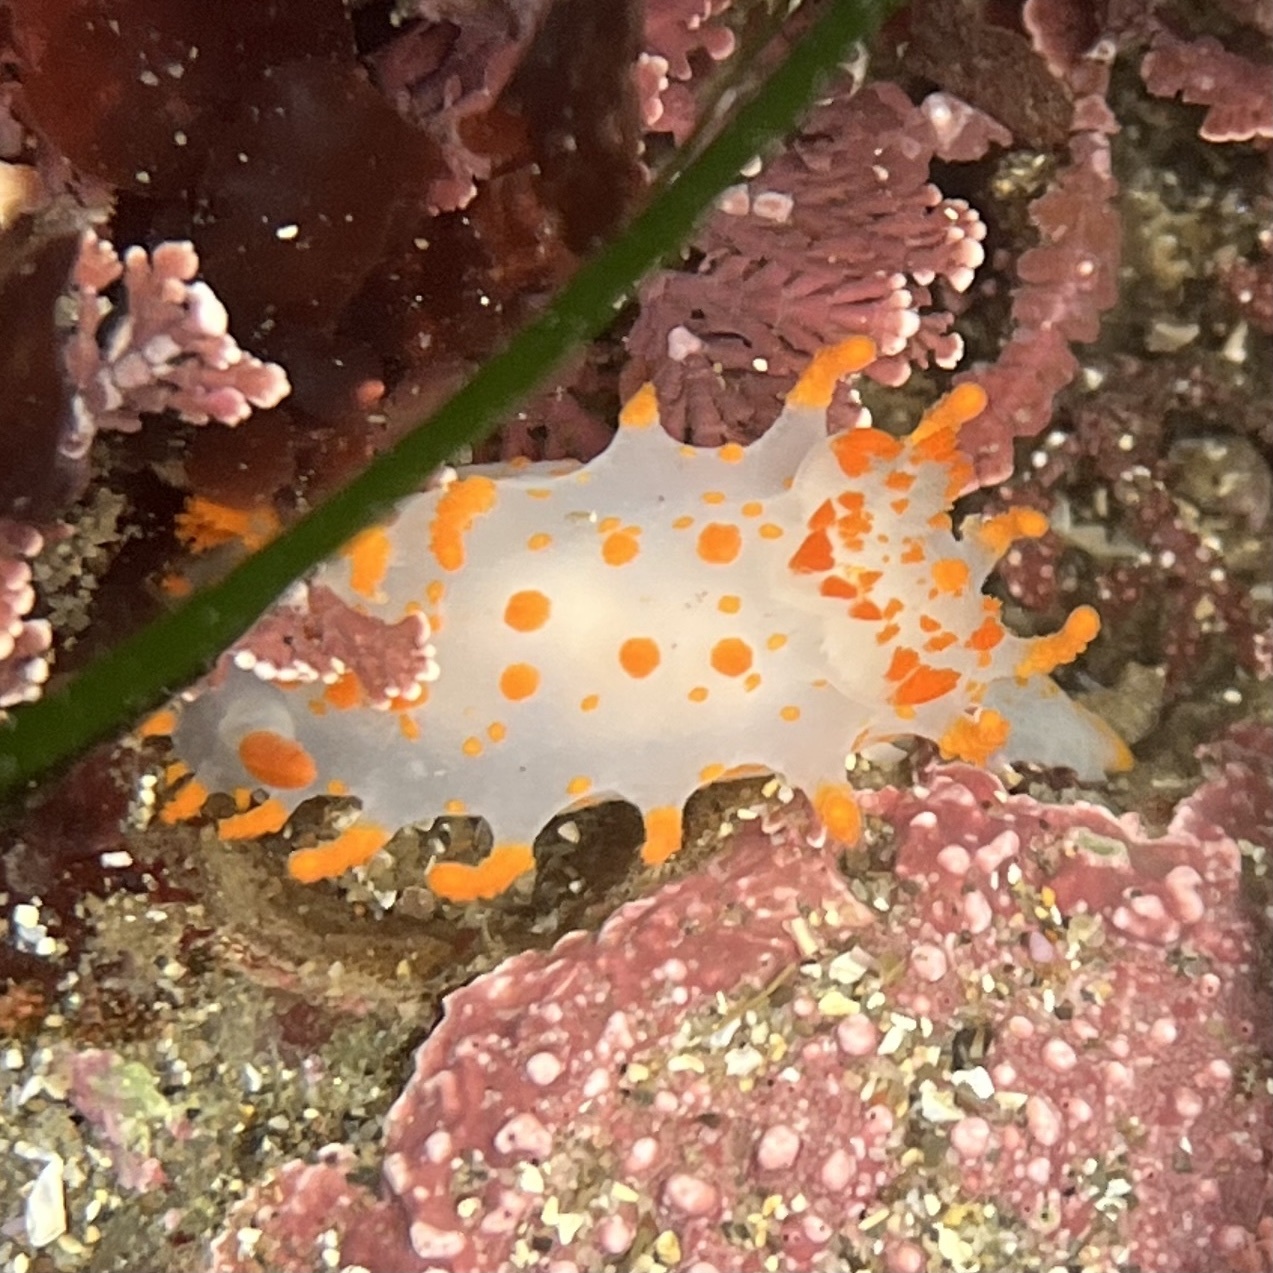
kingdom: Animalia
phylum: Mollusca
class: Gastropoda
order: Nudibranchia
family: Polyceridae
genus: Triopha
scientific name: Triopha catalinae
